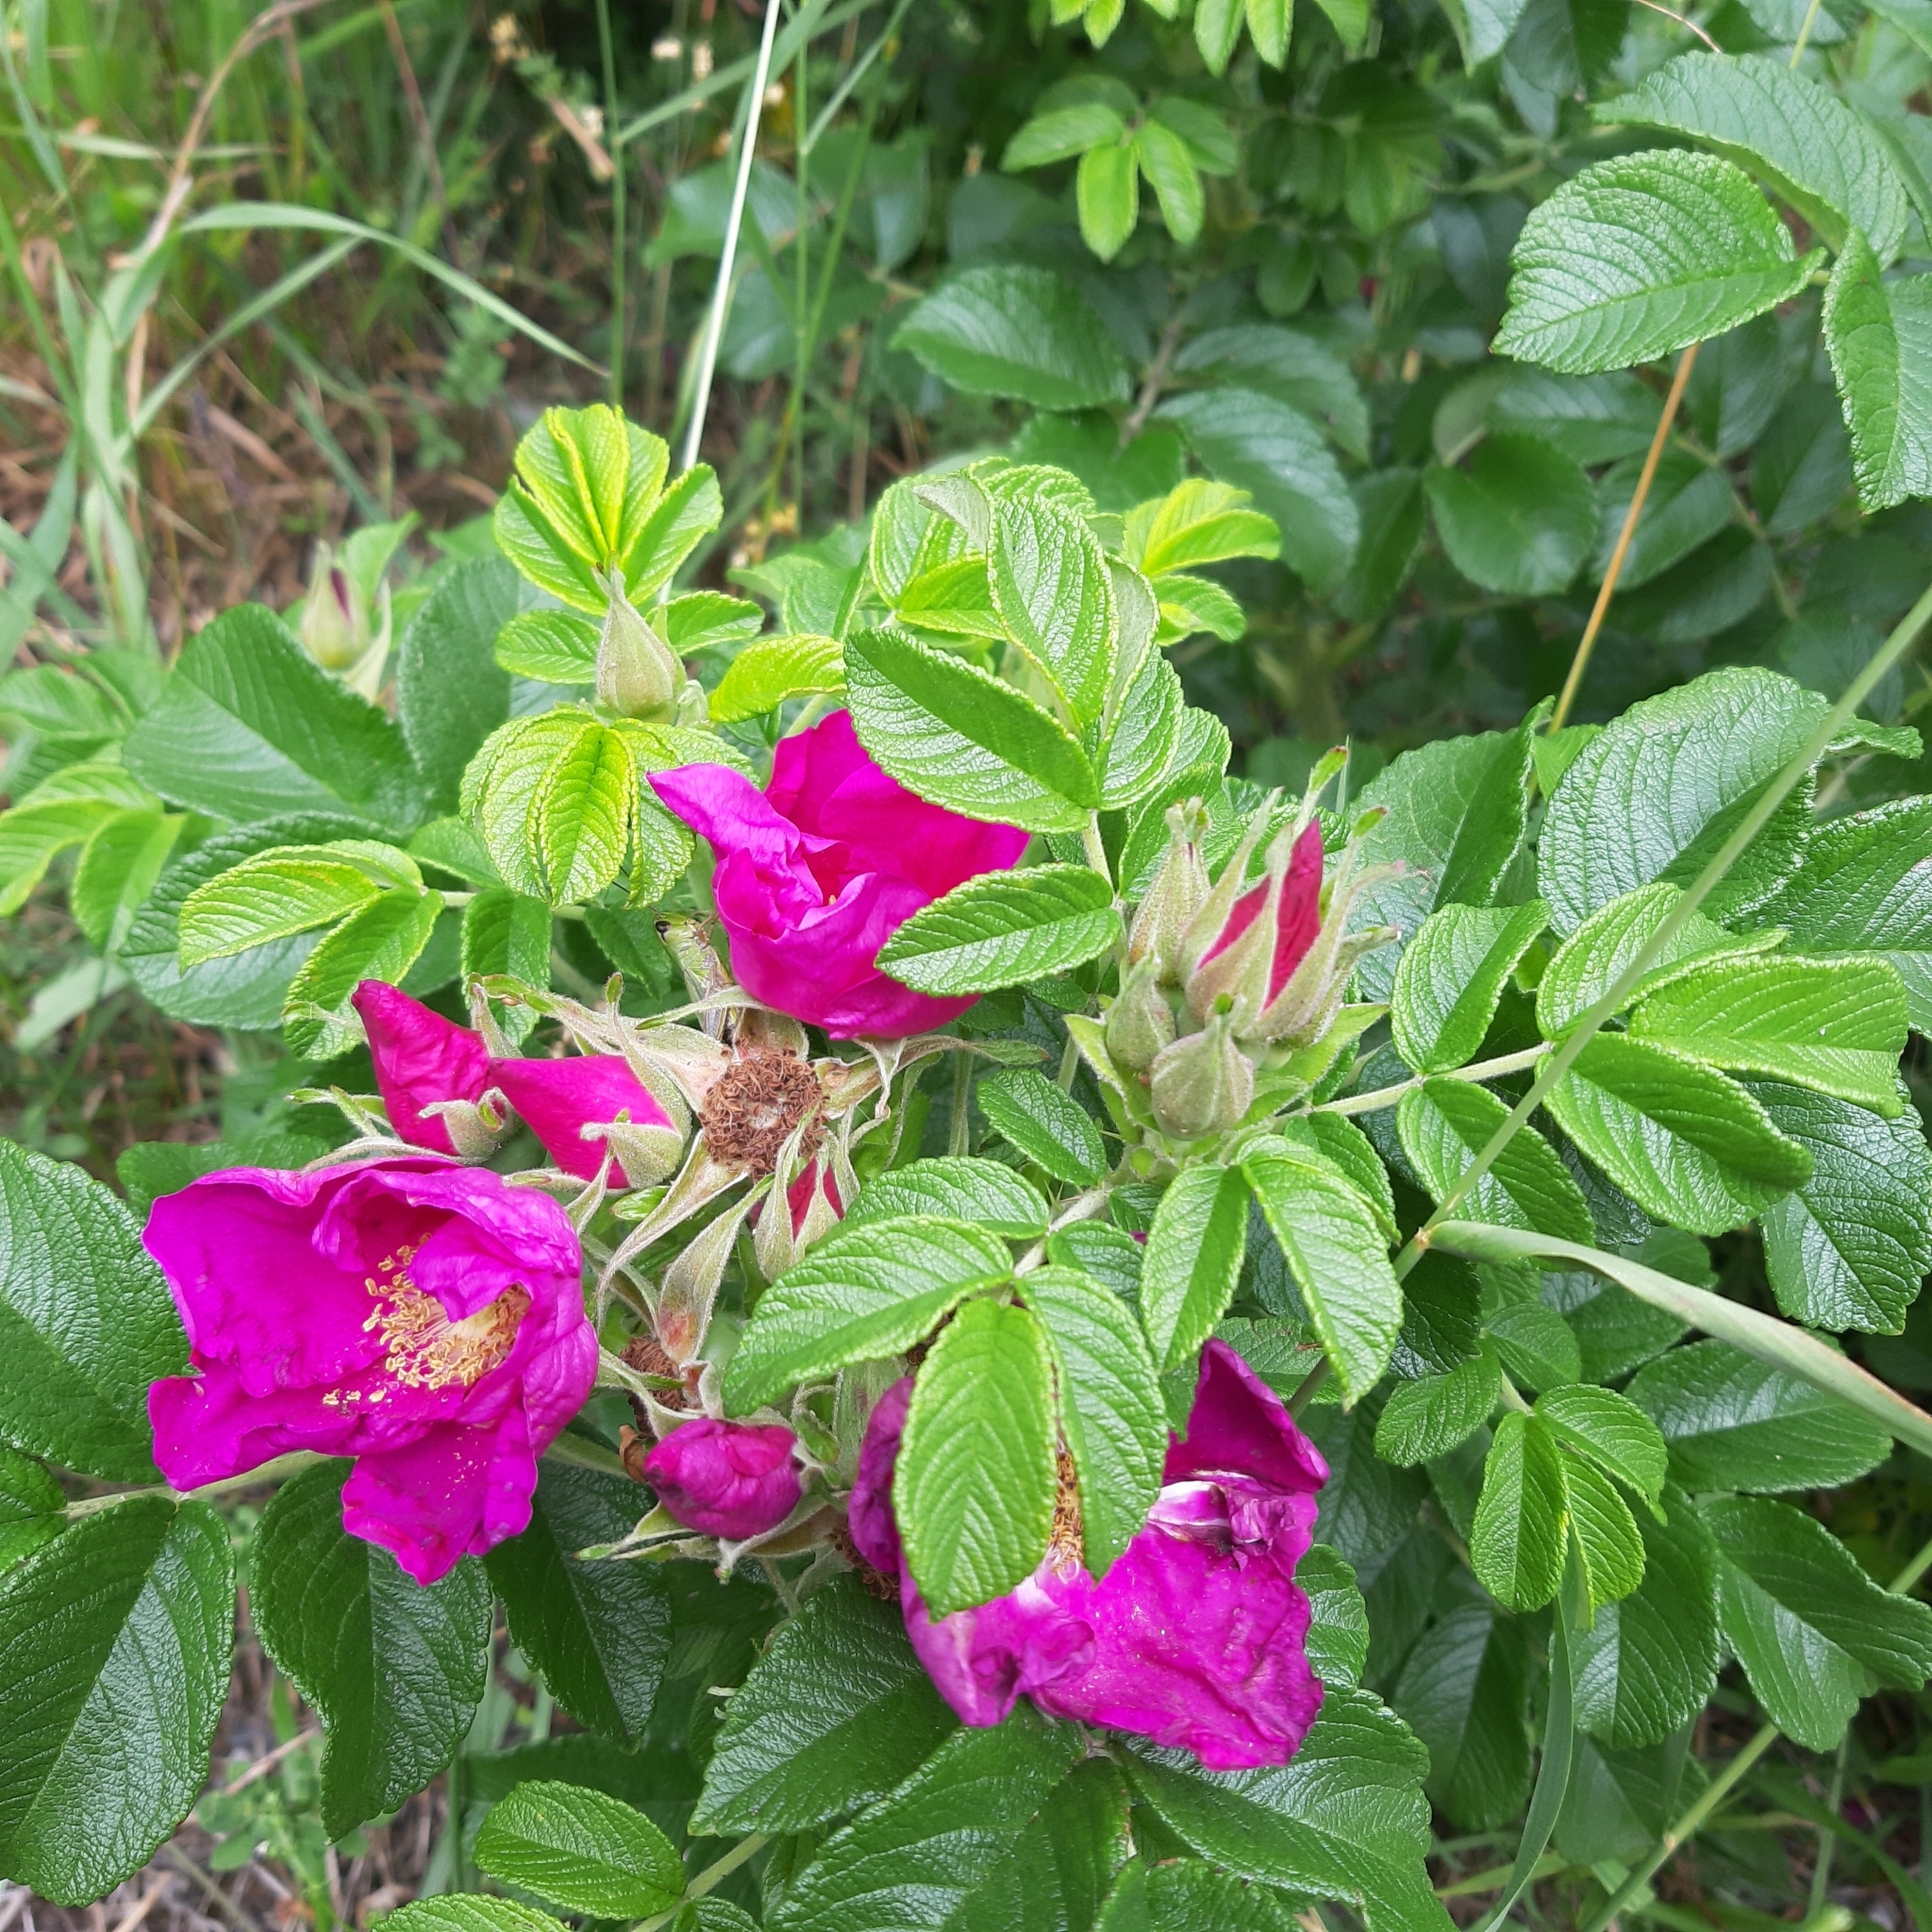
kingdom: Plantae
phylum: Tracheophyta
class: Magnoliopsida
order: Rosales
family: Rosaceae
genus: Rosa
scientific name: Rosa rugosa
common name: Japanese rose
